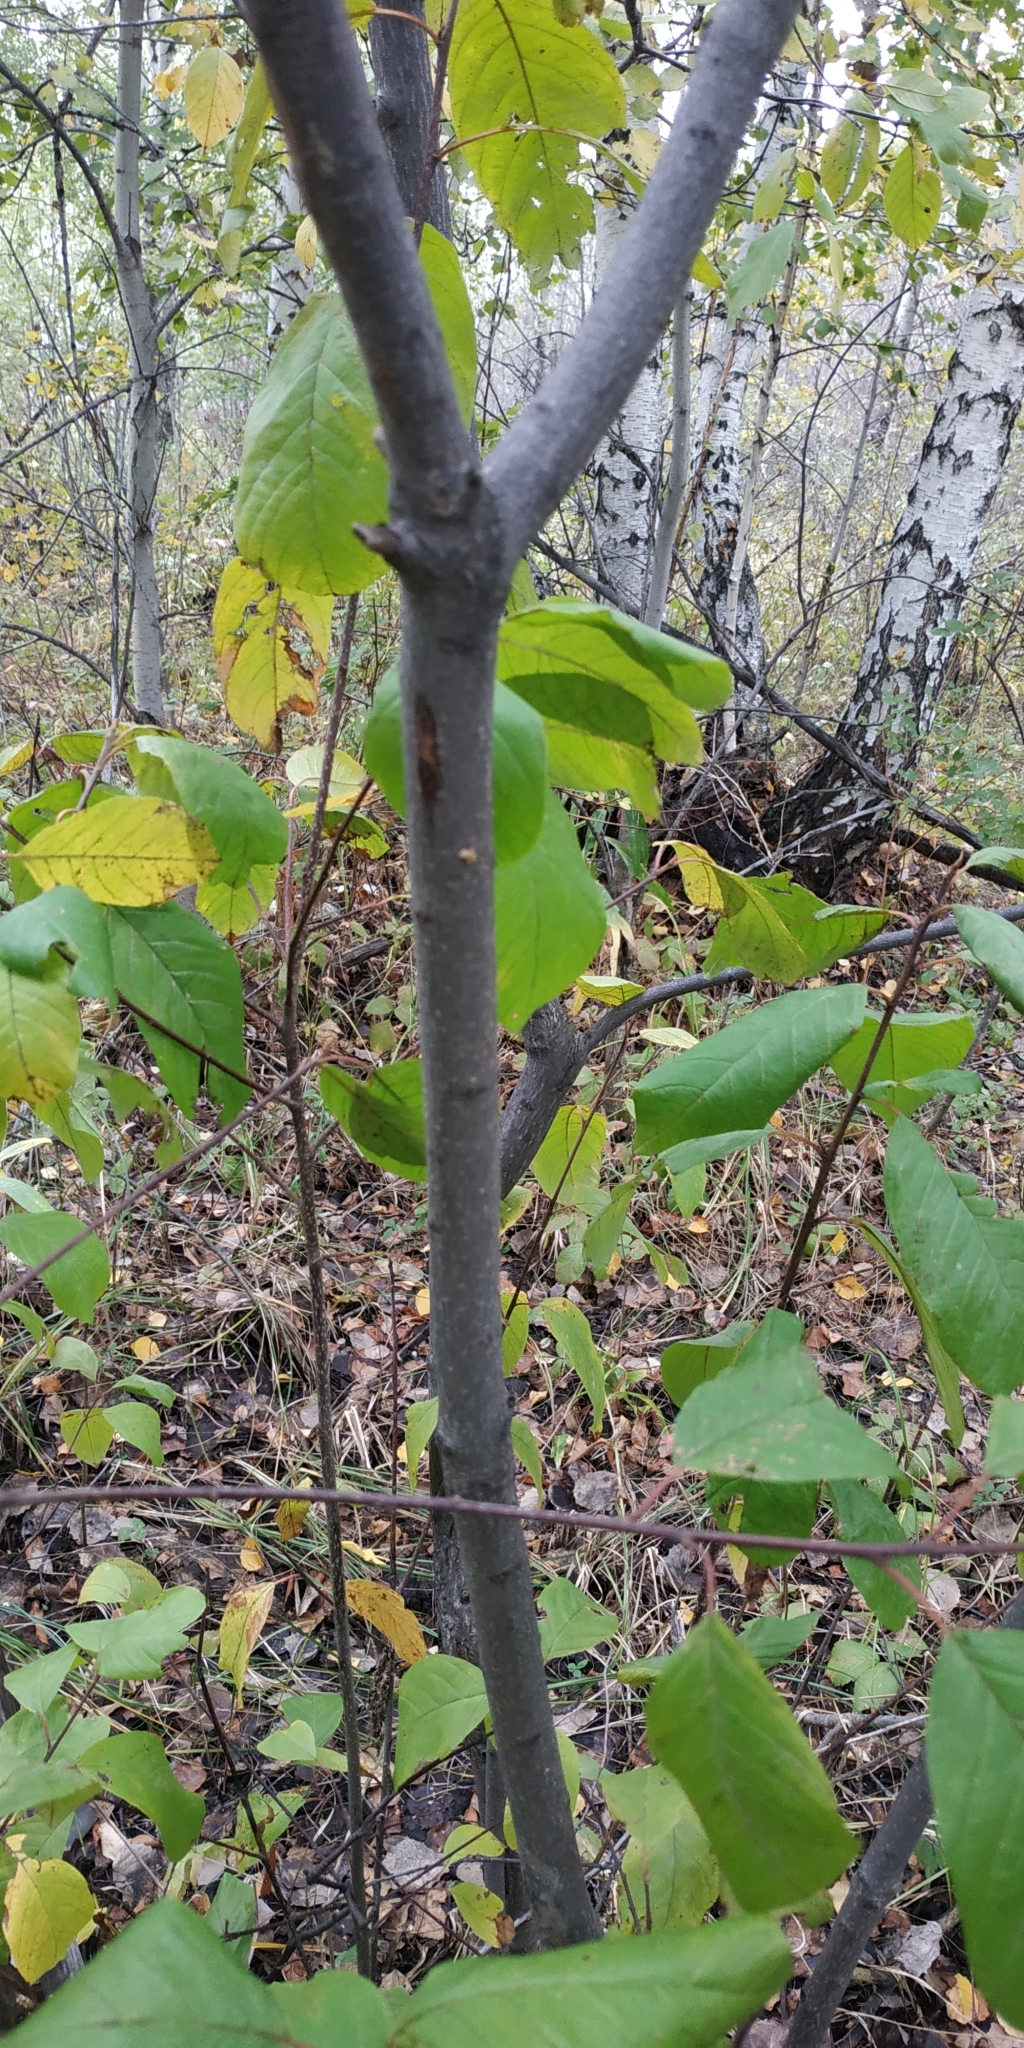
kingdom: Plantae
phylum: Tracheophyta
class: Magnoliopsida
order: Rosales
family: Rhamnaceae
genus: Frangula
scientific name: Frangula alnus
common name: Alder buckthorn
